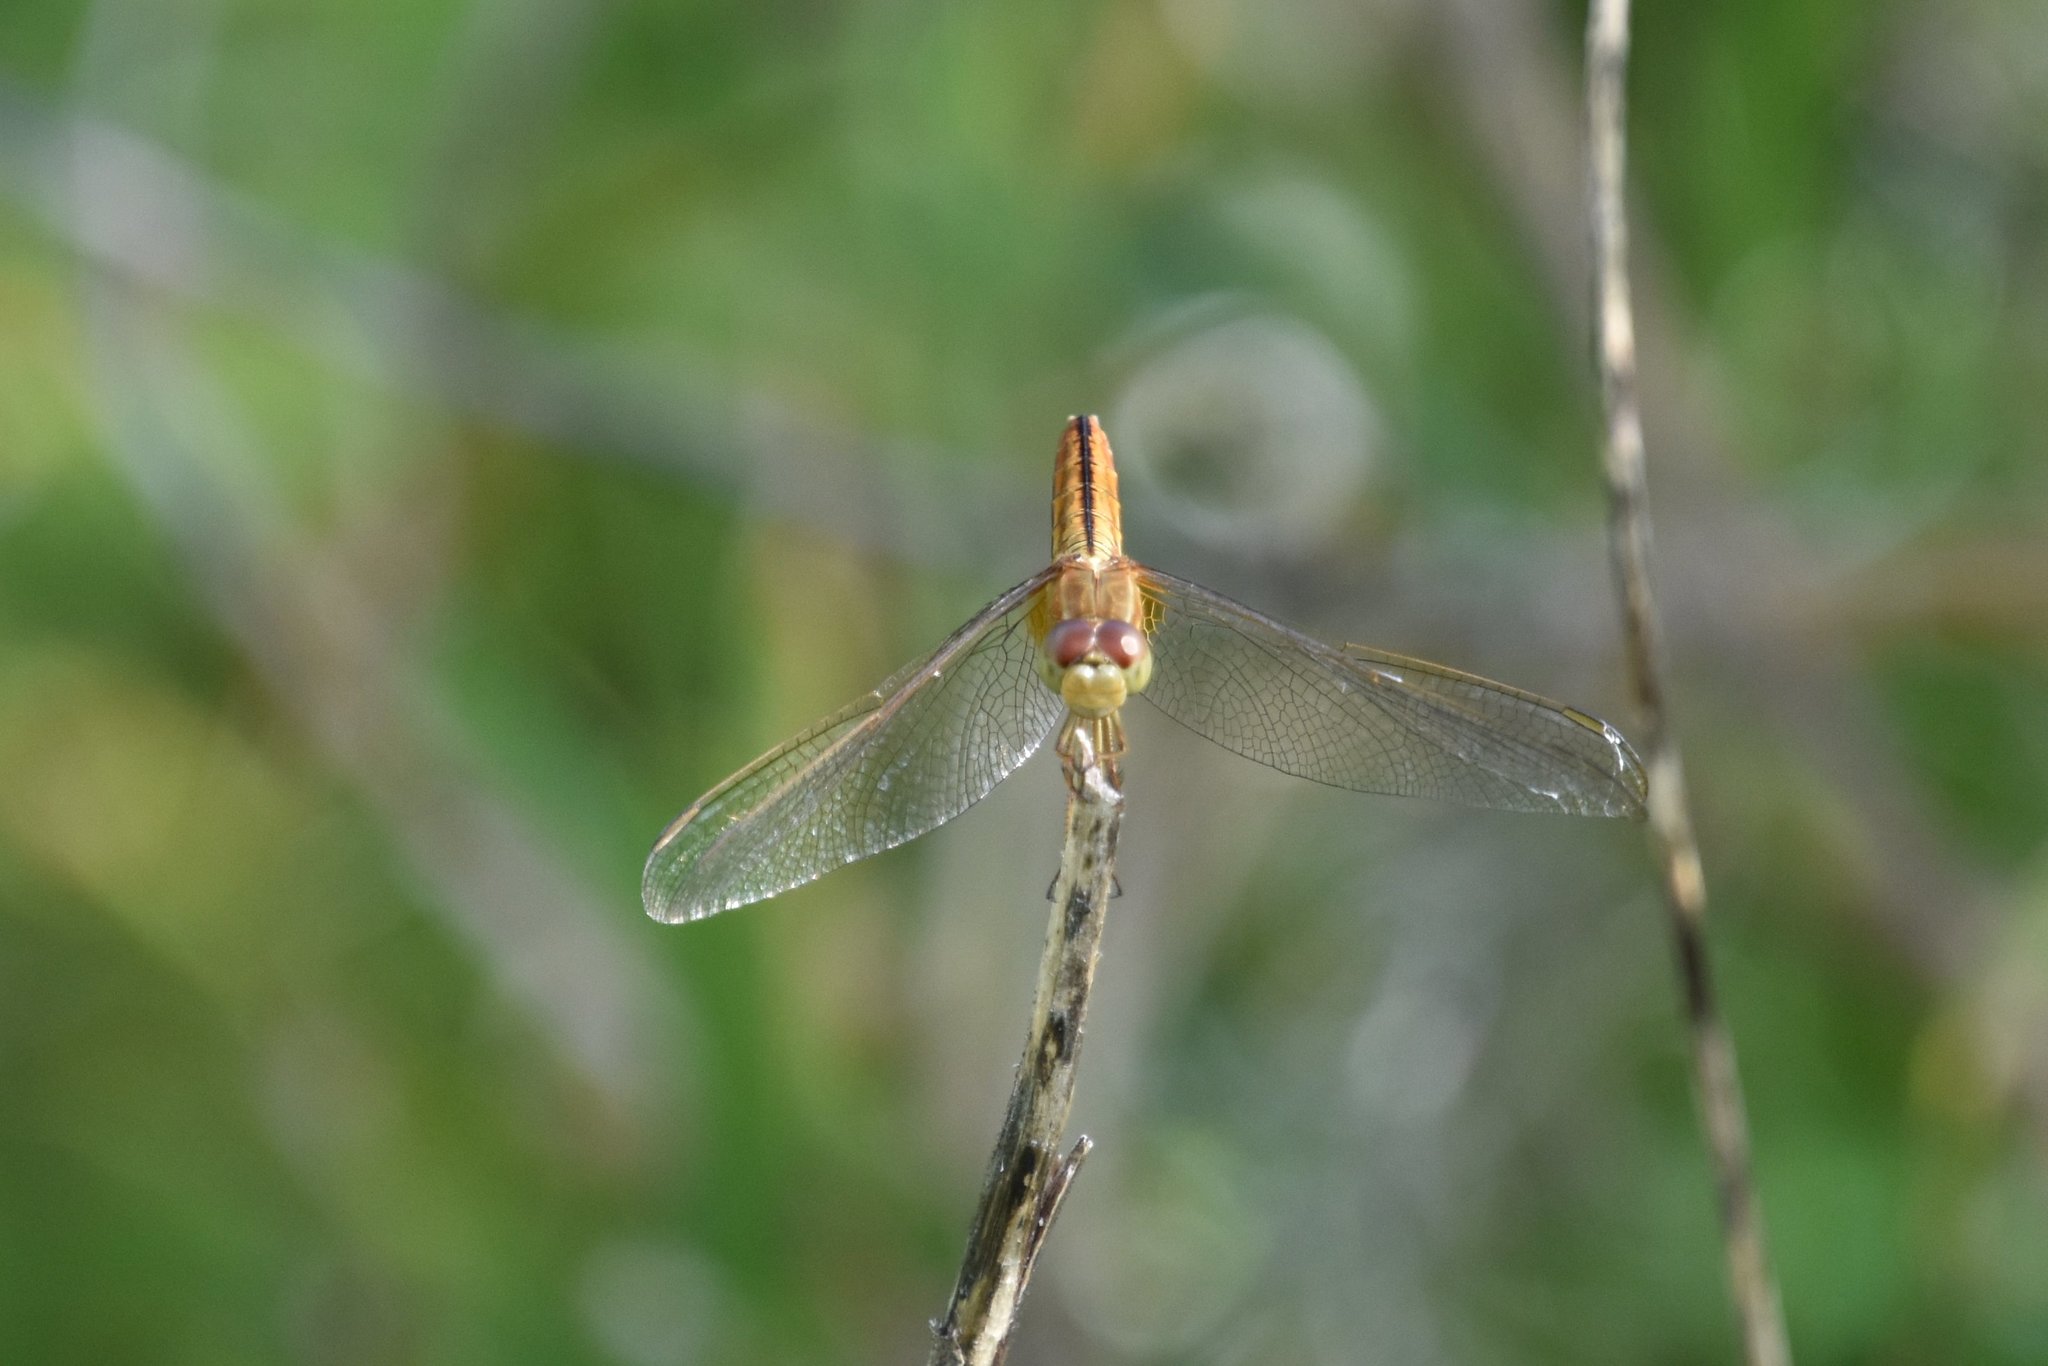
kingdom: Animalia
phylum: Arthropoda
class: Insecta
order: Odonata
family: Libellulidae
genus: Crocothemis
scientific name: Crocothemis servilia
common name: Scarlet skimmer
